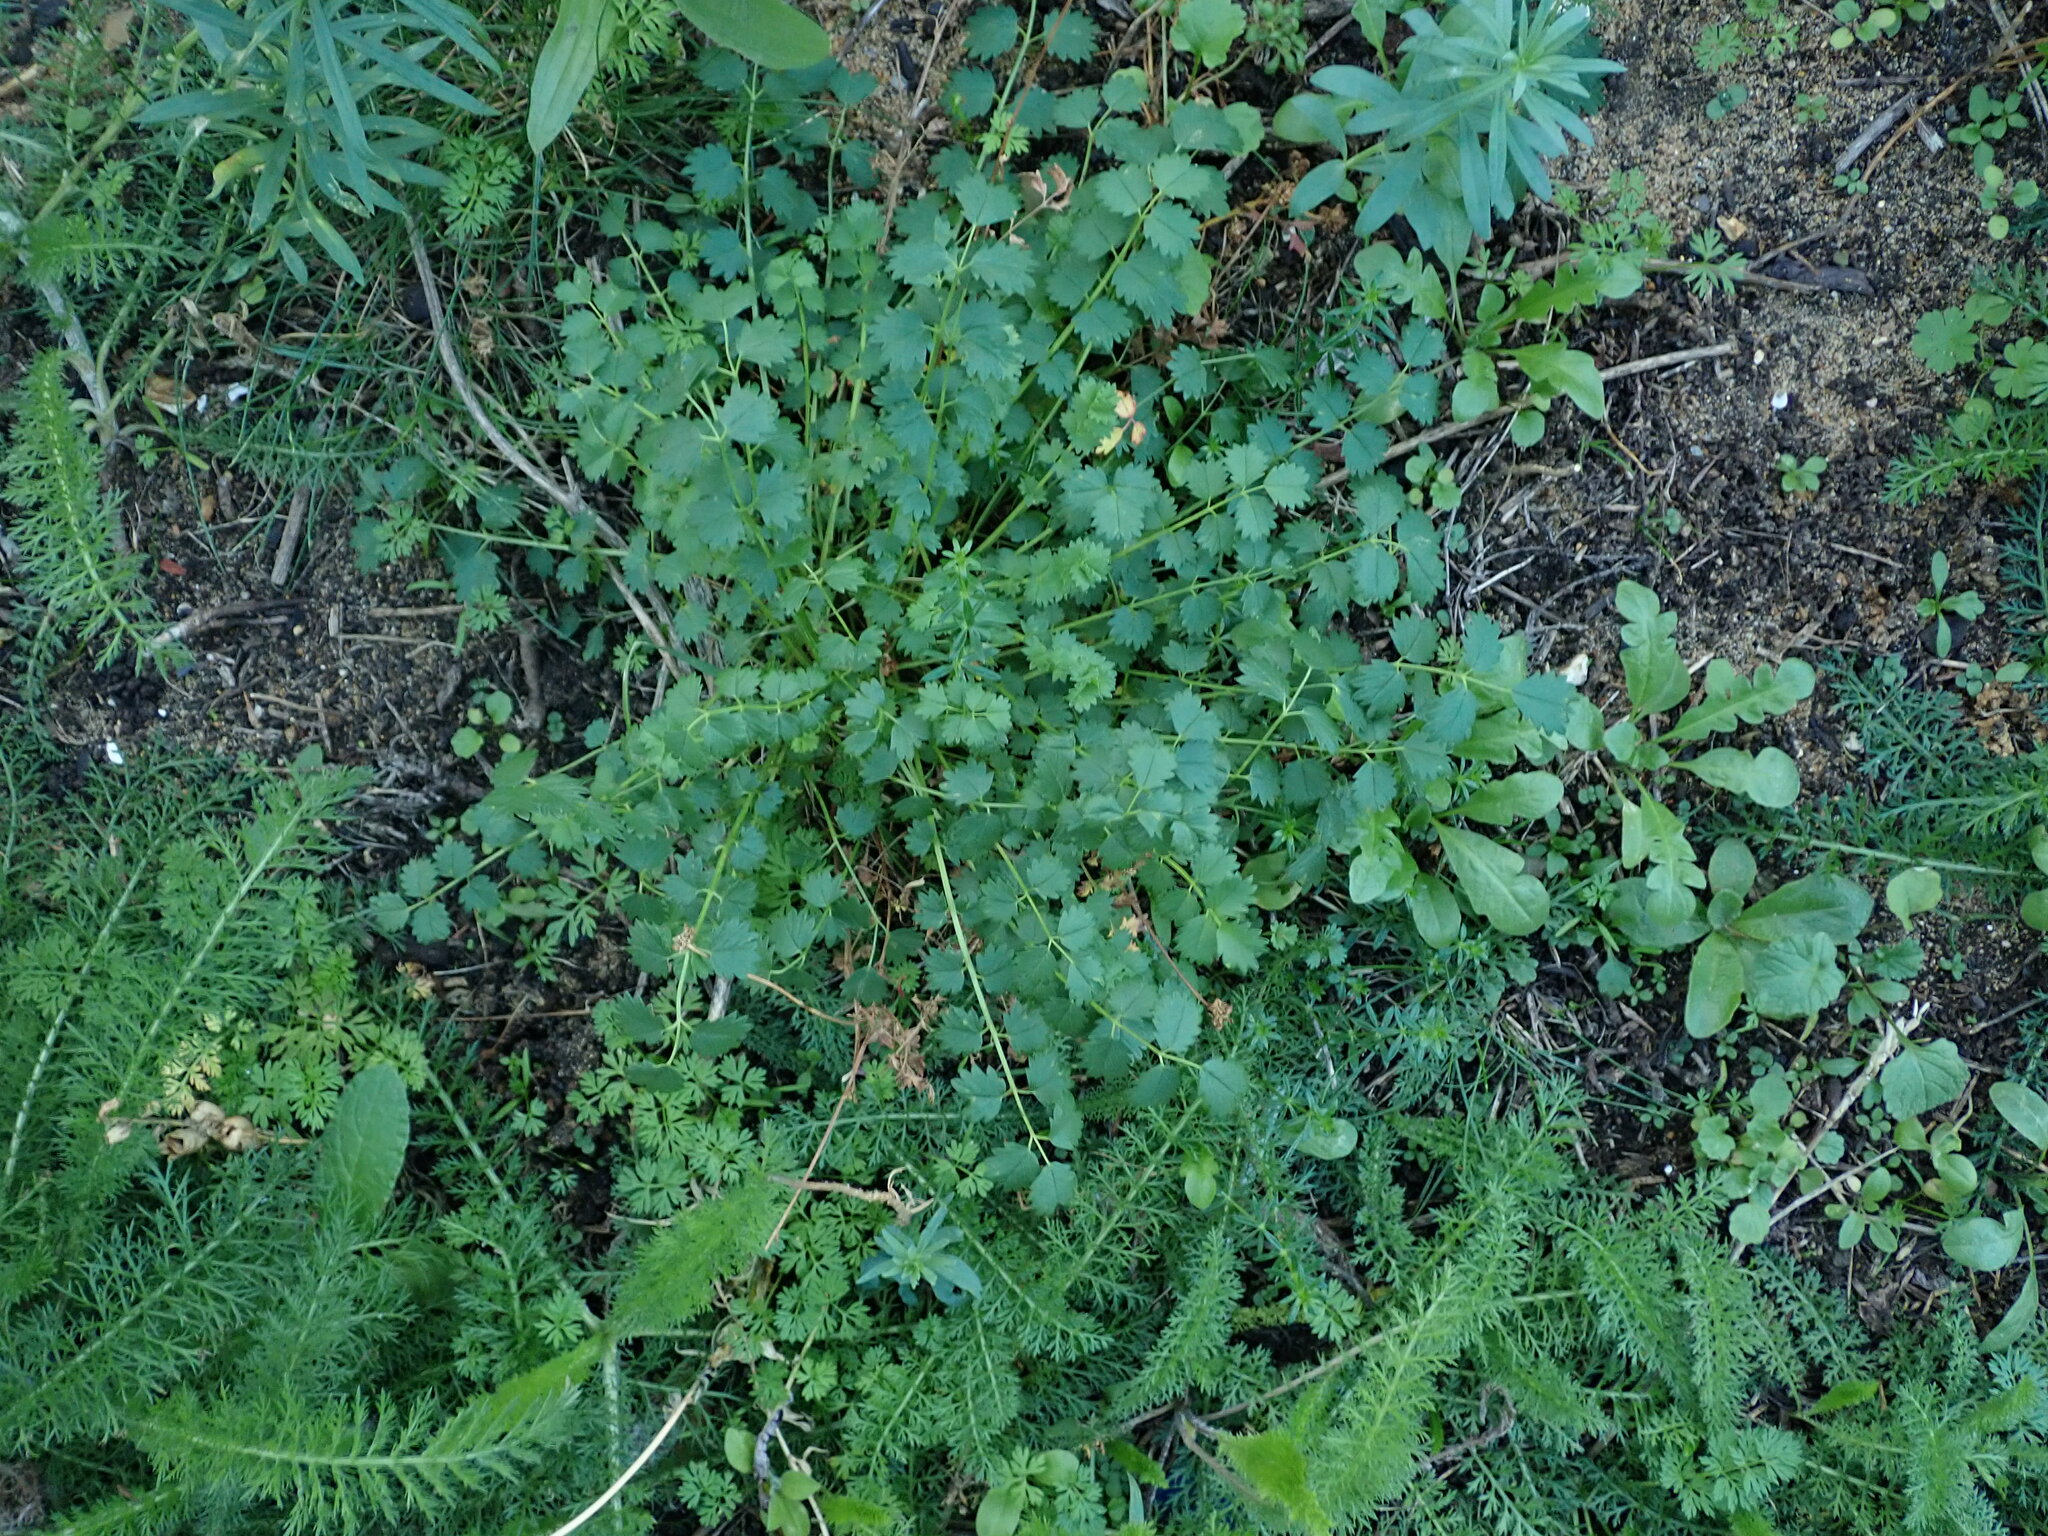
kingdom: Plantae
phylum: Tracheophyta
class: Magnoliopsida
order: Rosales
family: Rosaceae
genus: Poterium
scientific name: Poterium sanguisorba
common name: Salad burnet
